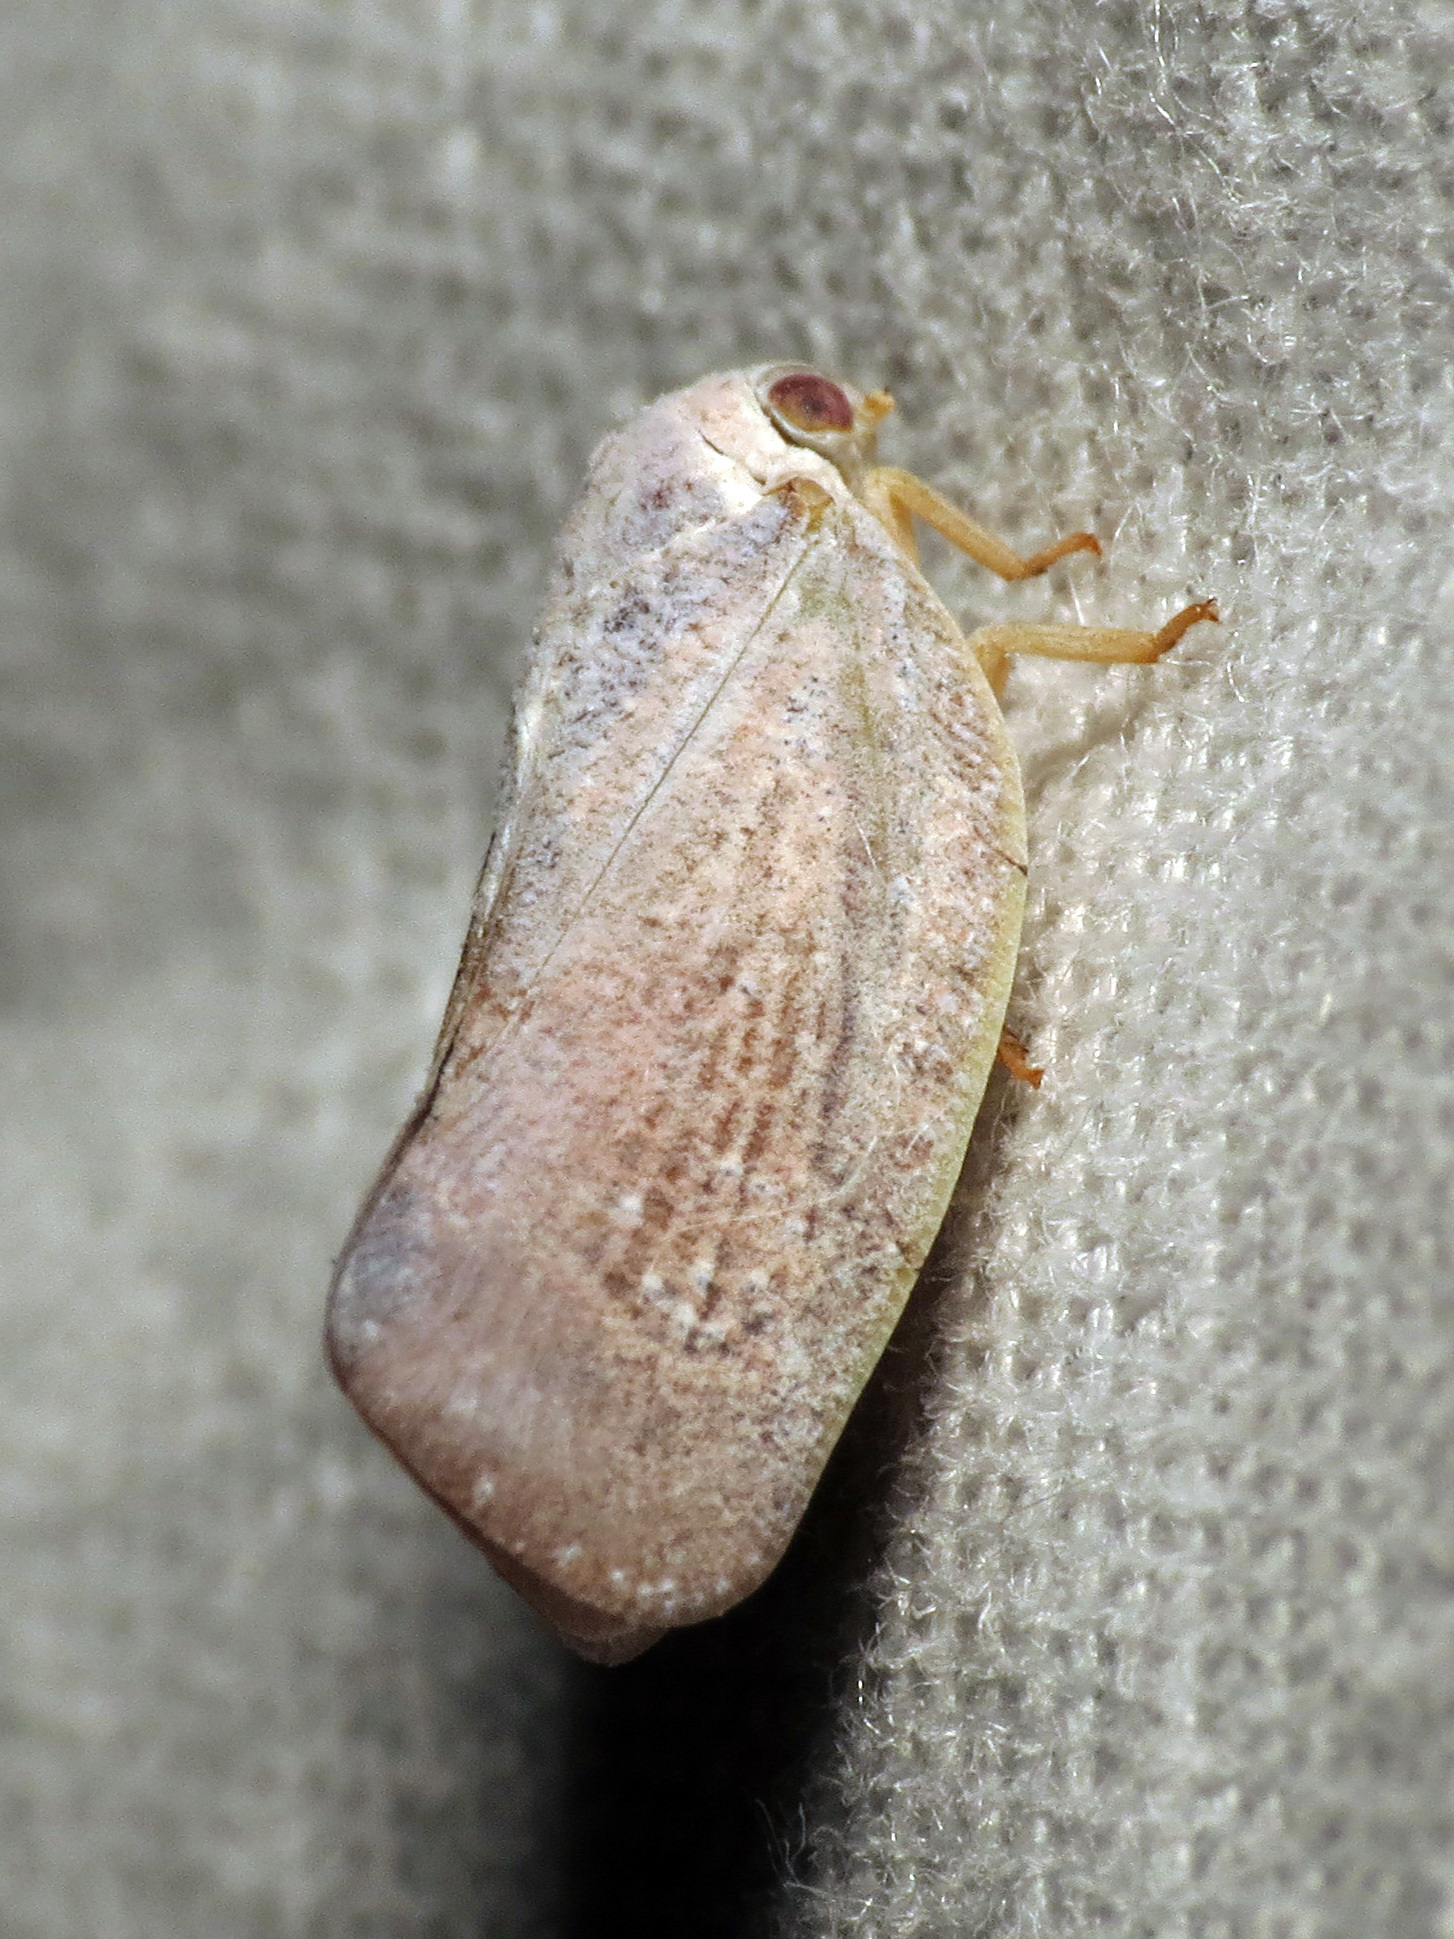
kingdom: Animalia
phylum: Arthropoda
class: Insecta
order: Hemiptera
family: Flatidae
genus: Flatormenis
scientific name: Flatormenis saucia
